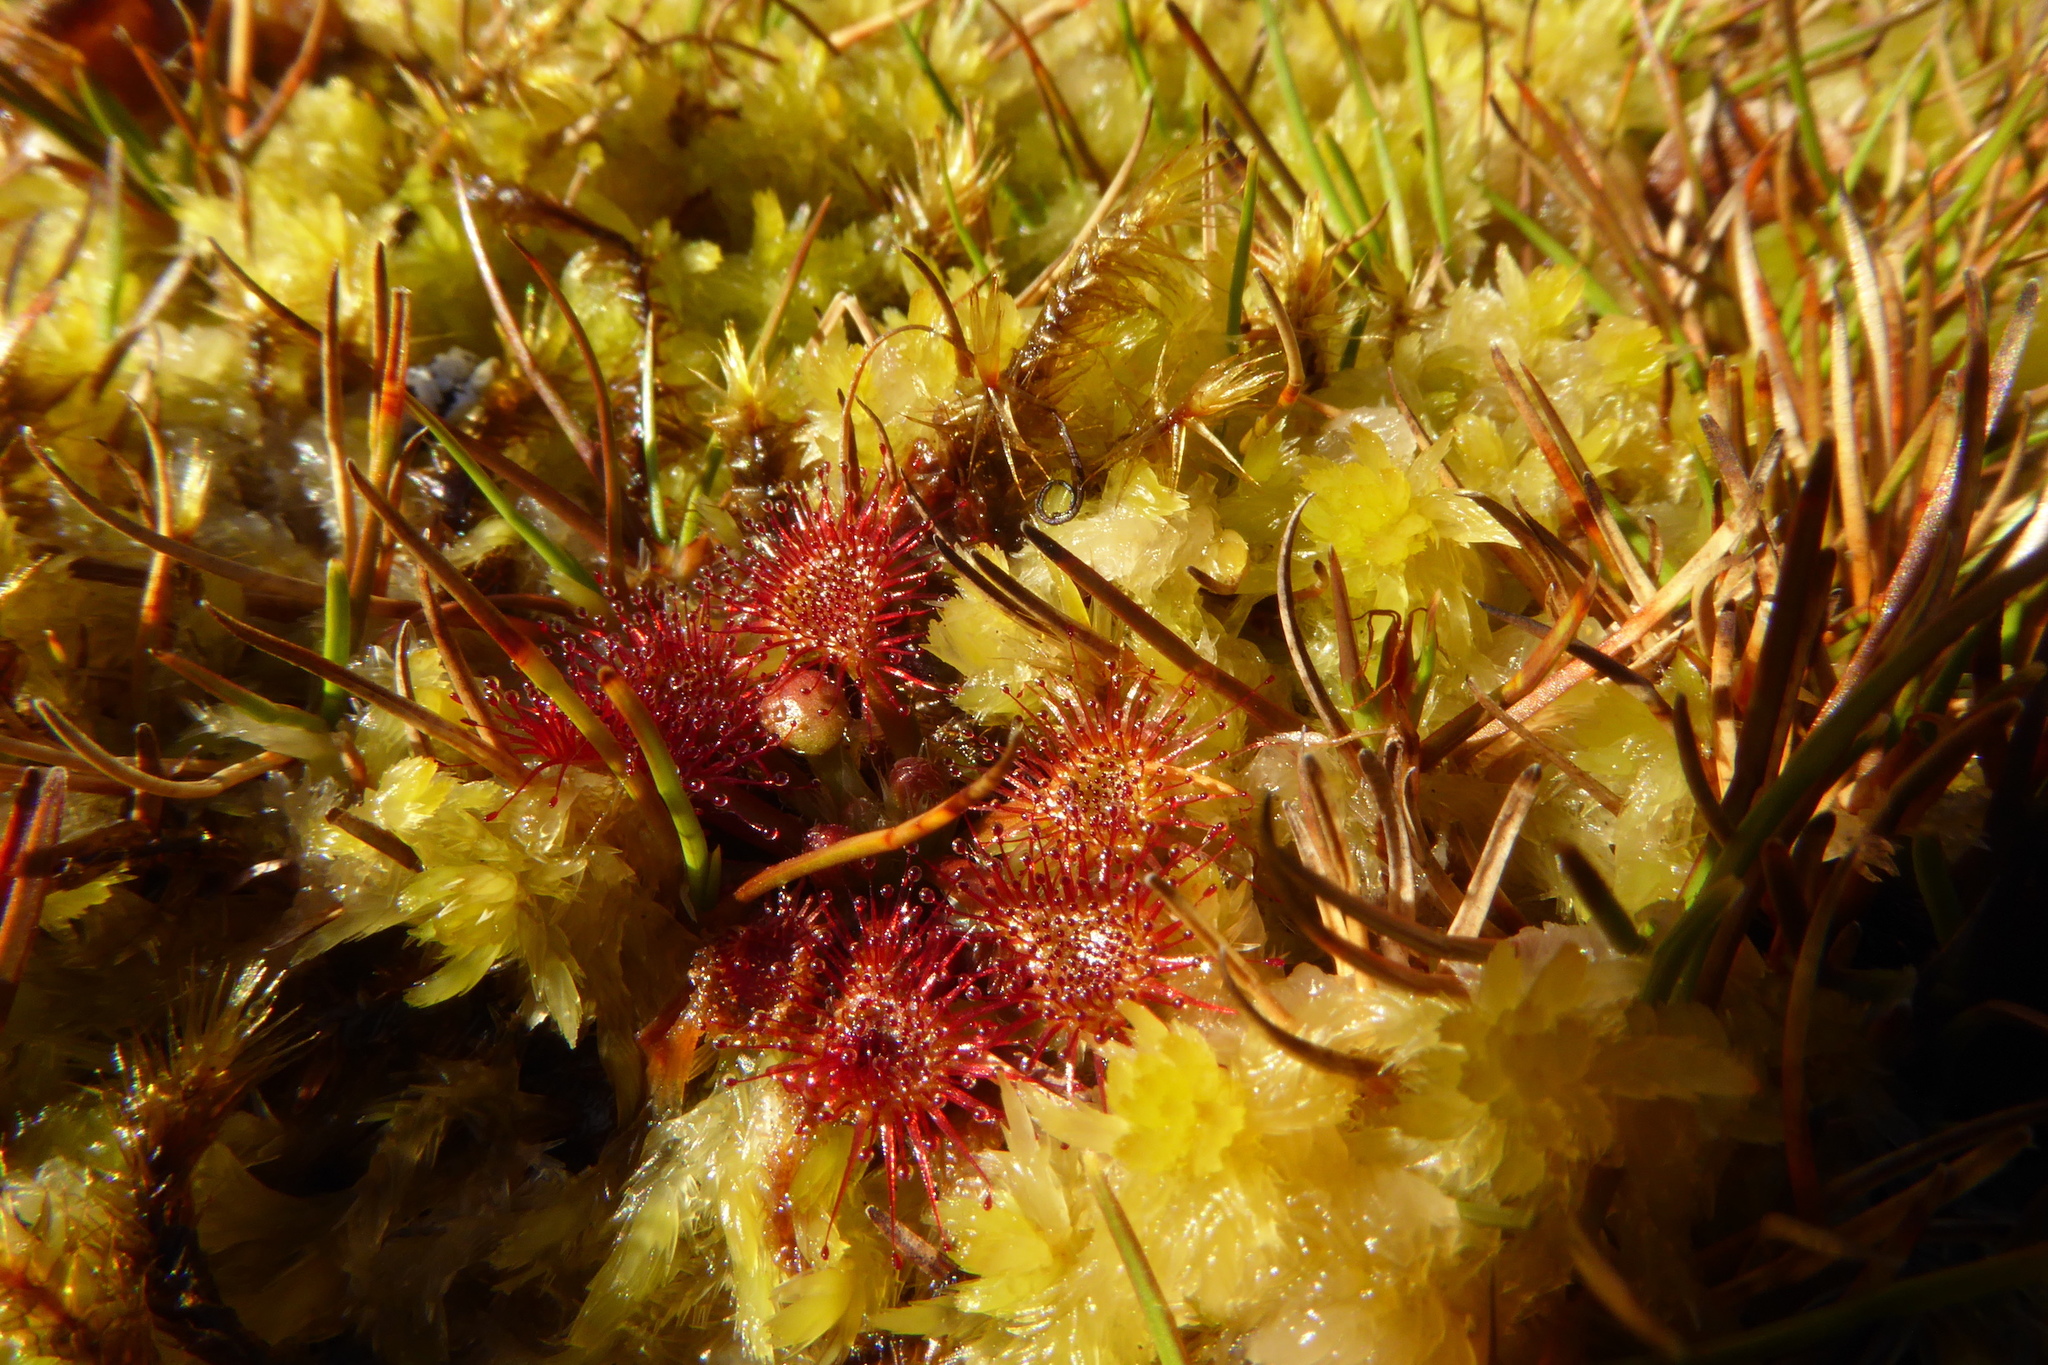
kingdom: Plantae
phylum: Tracheophyta
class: Magnoliopsida
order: Caryophyllales
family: Droseraceae
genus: Drosera
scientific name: Drosera spatulata
